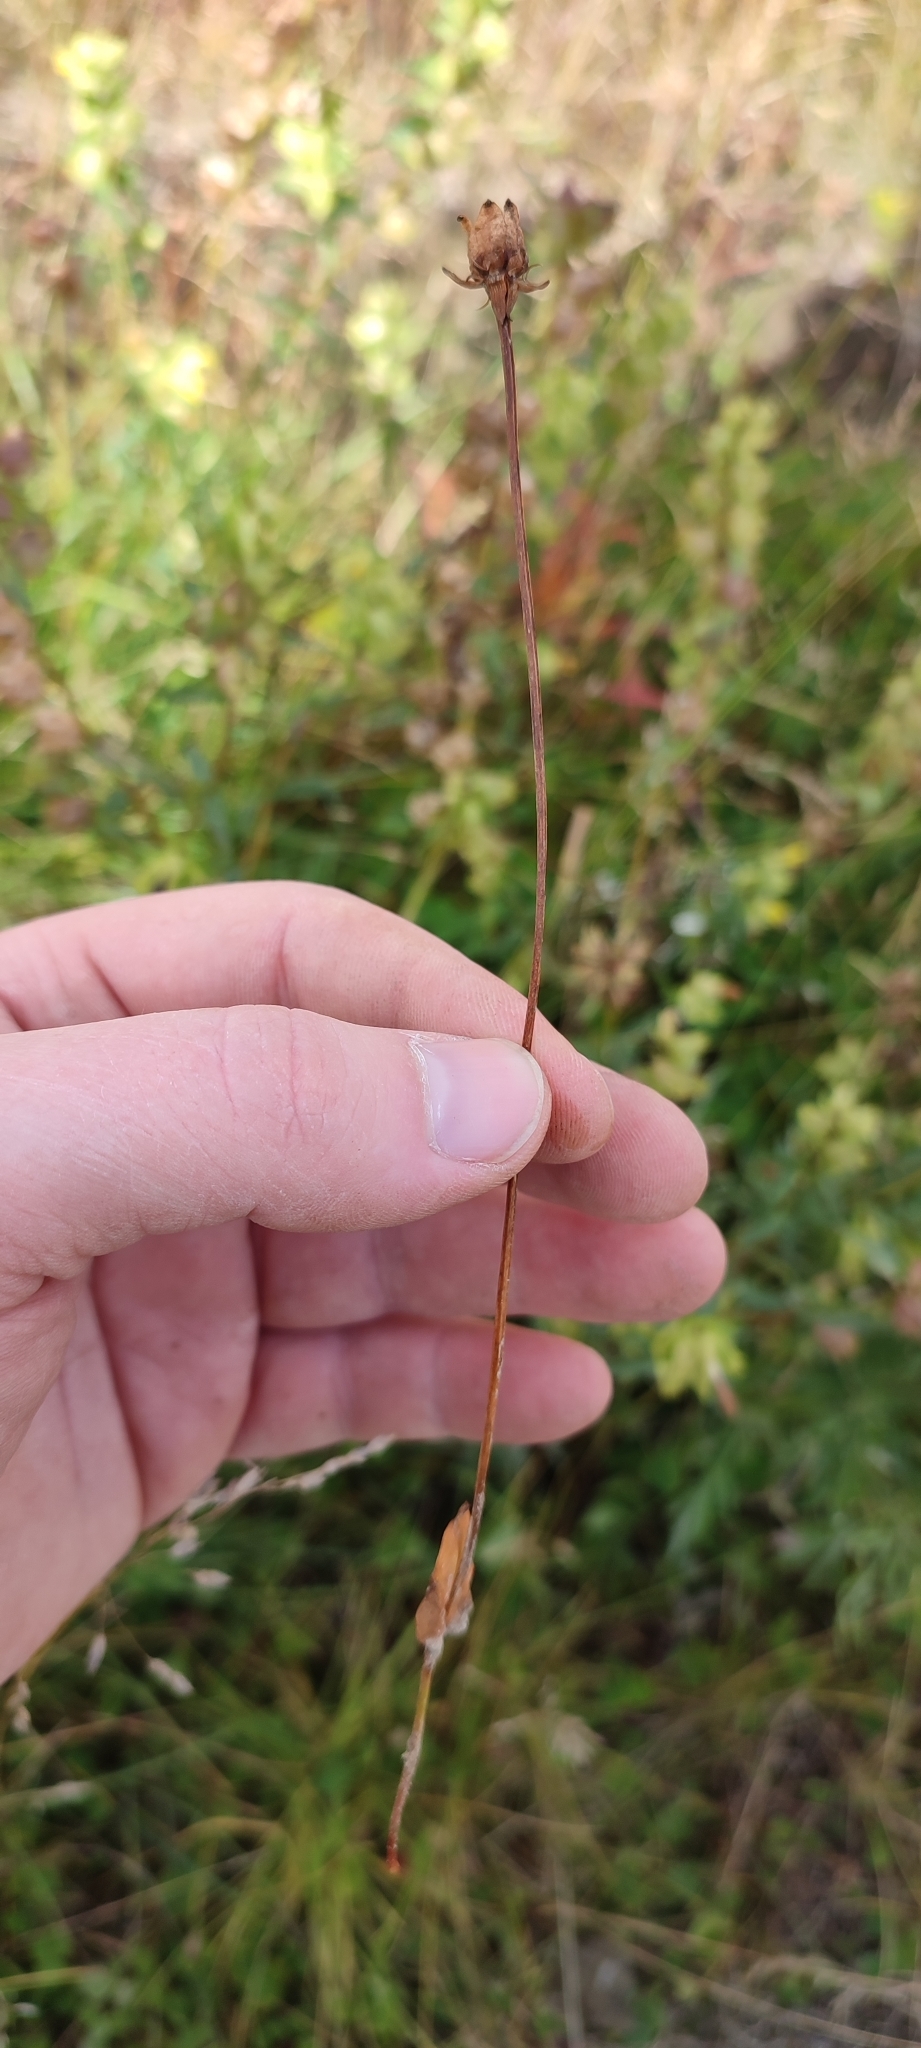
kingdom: Plantae
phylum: Tracheophyta
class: Magnoliopsida
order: Celastrales
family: Parnassiaceae
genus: Parnassia
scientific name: Parnassia palustris
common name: Grass-of-parnassus
